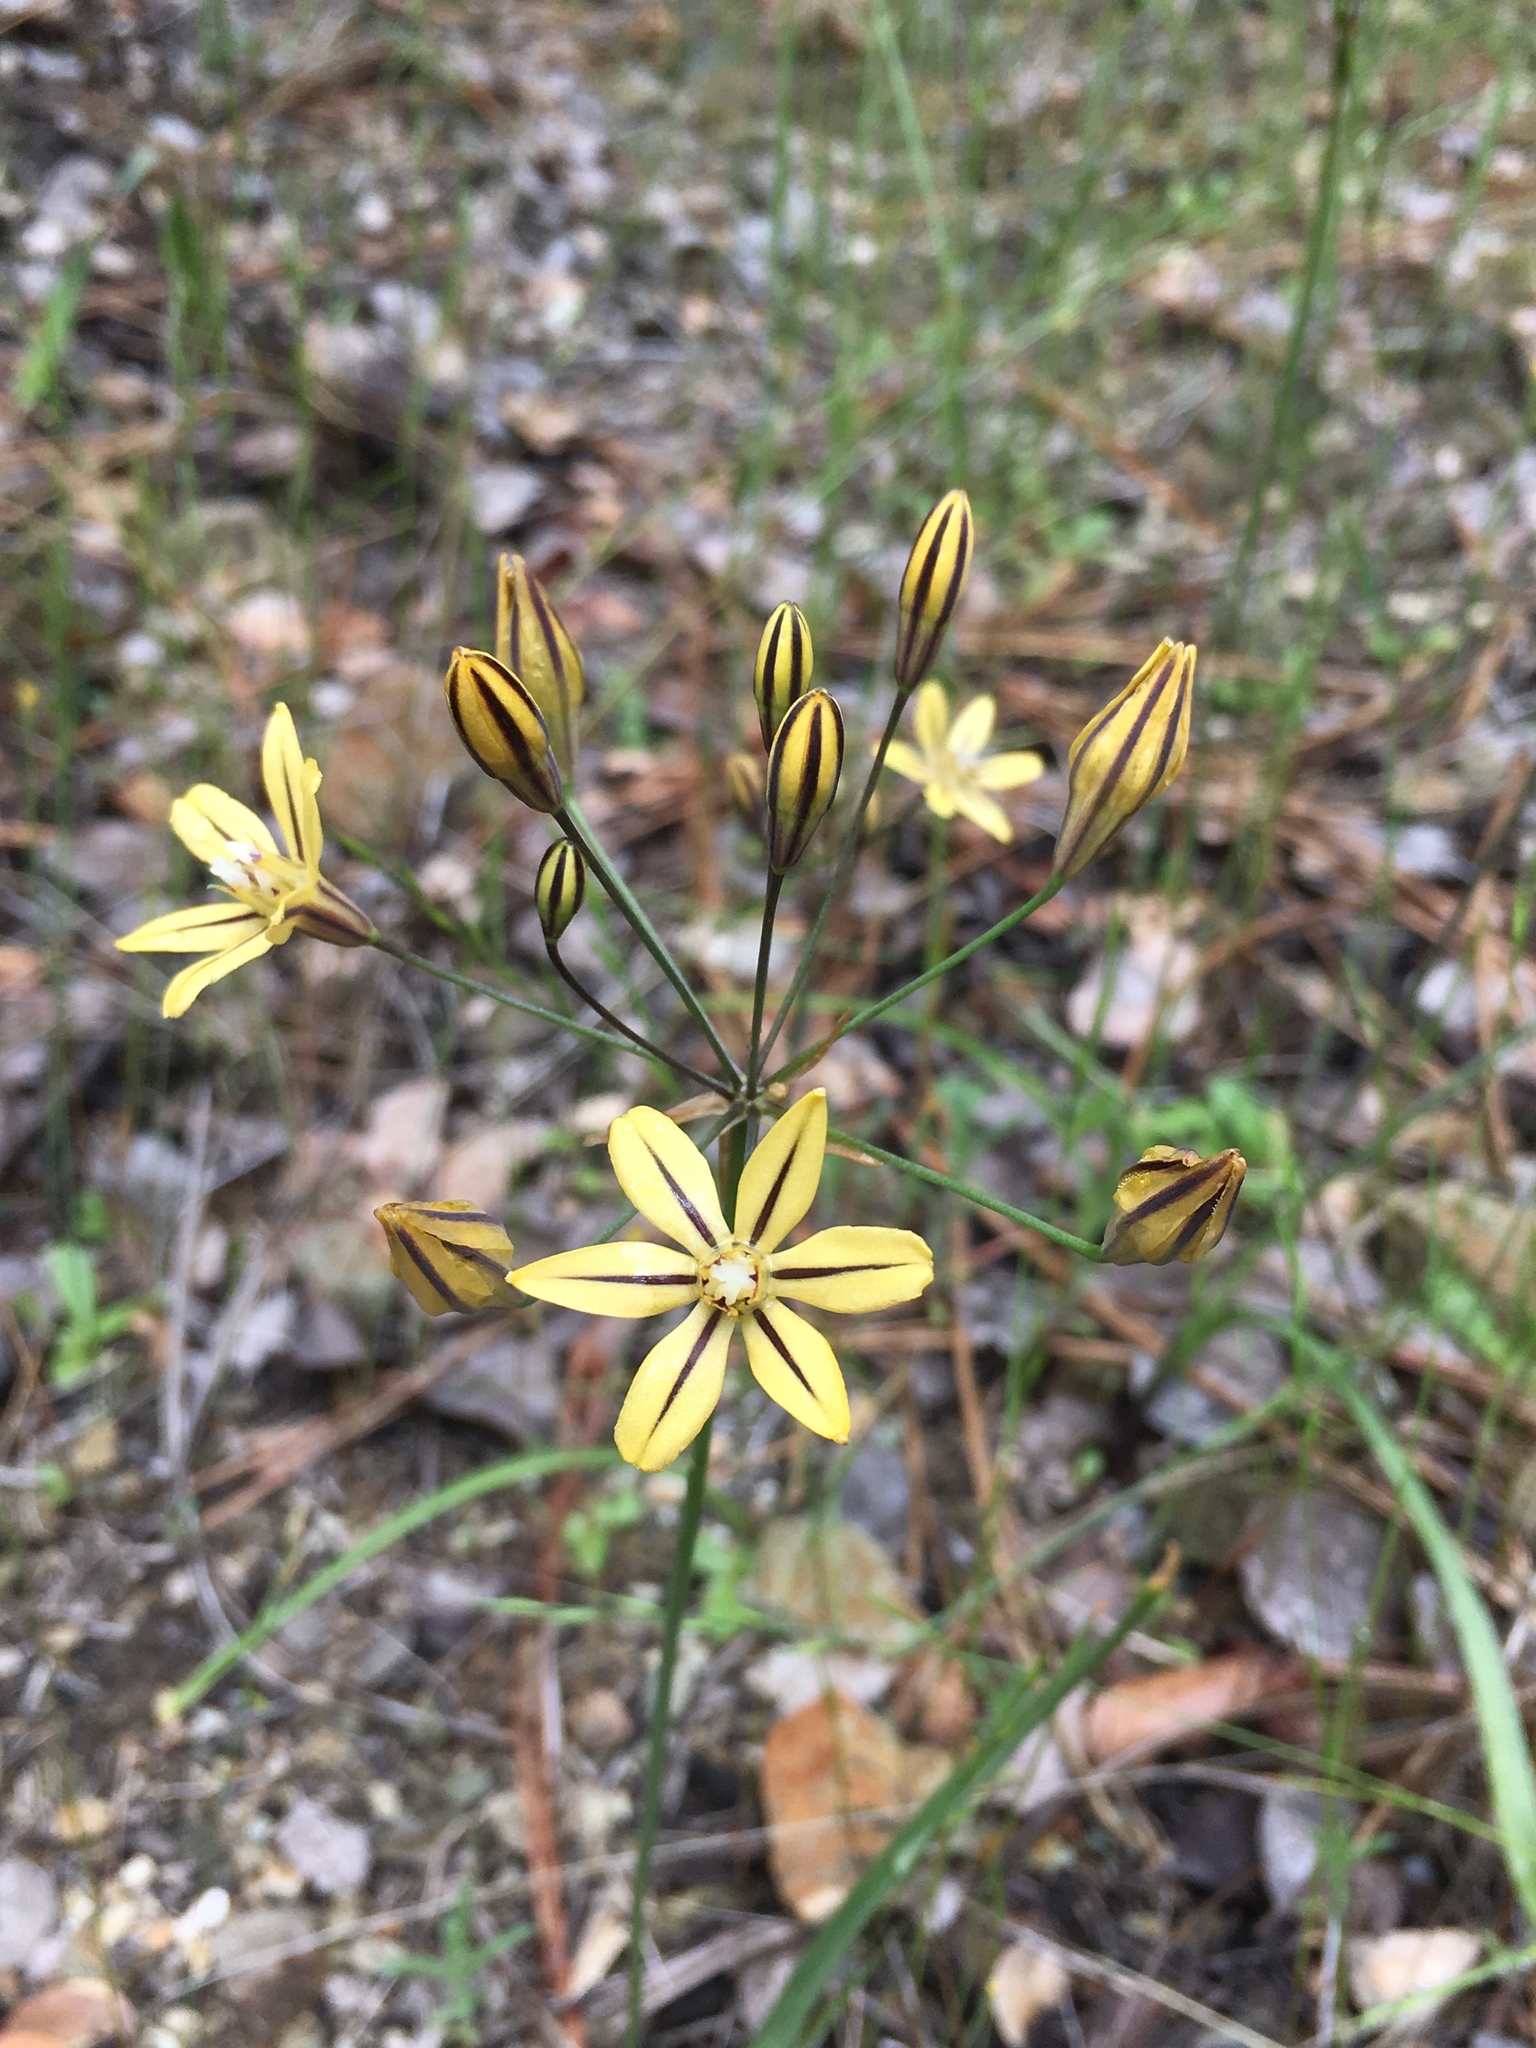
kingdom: Plantae
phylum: Tracheophyta
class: Liliopsida
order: Asparagales
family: Asparagaceae
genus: Triteleia
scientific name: Triteleia ixioides
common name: Yellow-brodiaea
